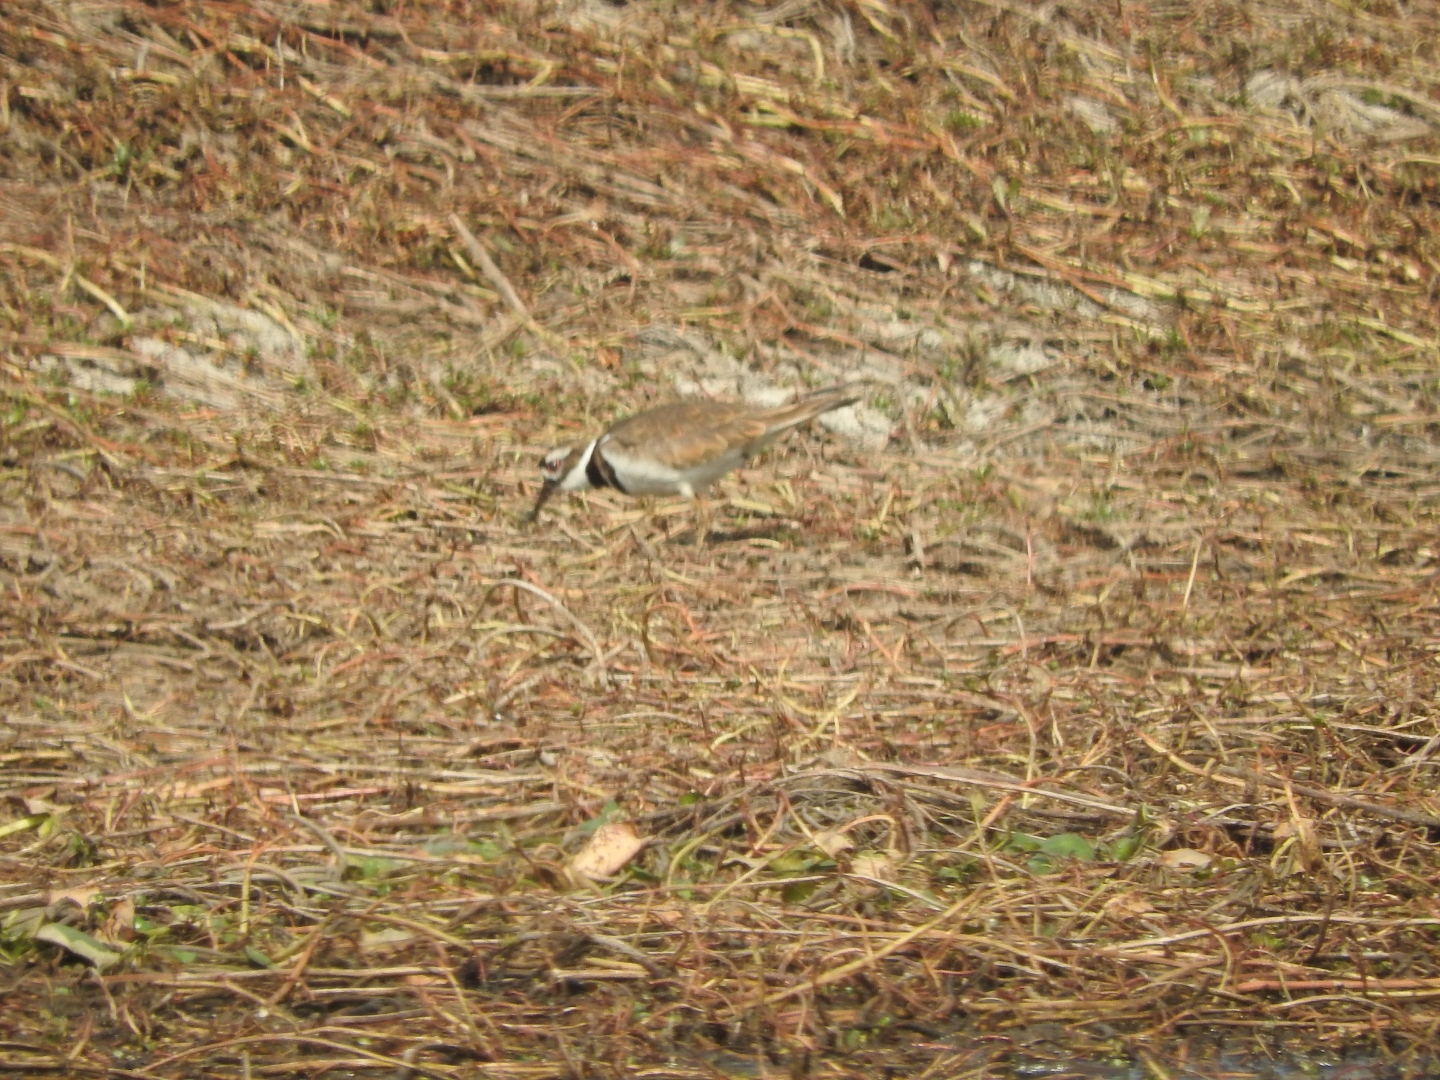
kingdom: Animalia
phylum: Chordata
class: Aves
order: Charadriiformes
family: Charadriidae
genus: Charadrius
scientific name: Charadrius vociferus
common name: Killdeer
